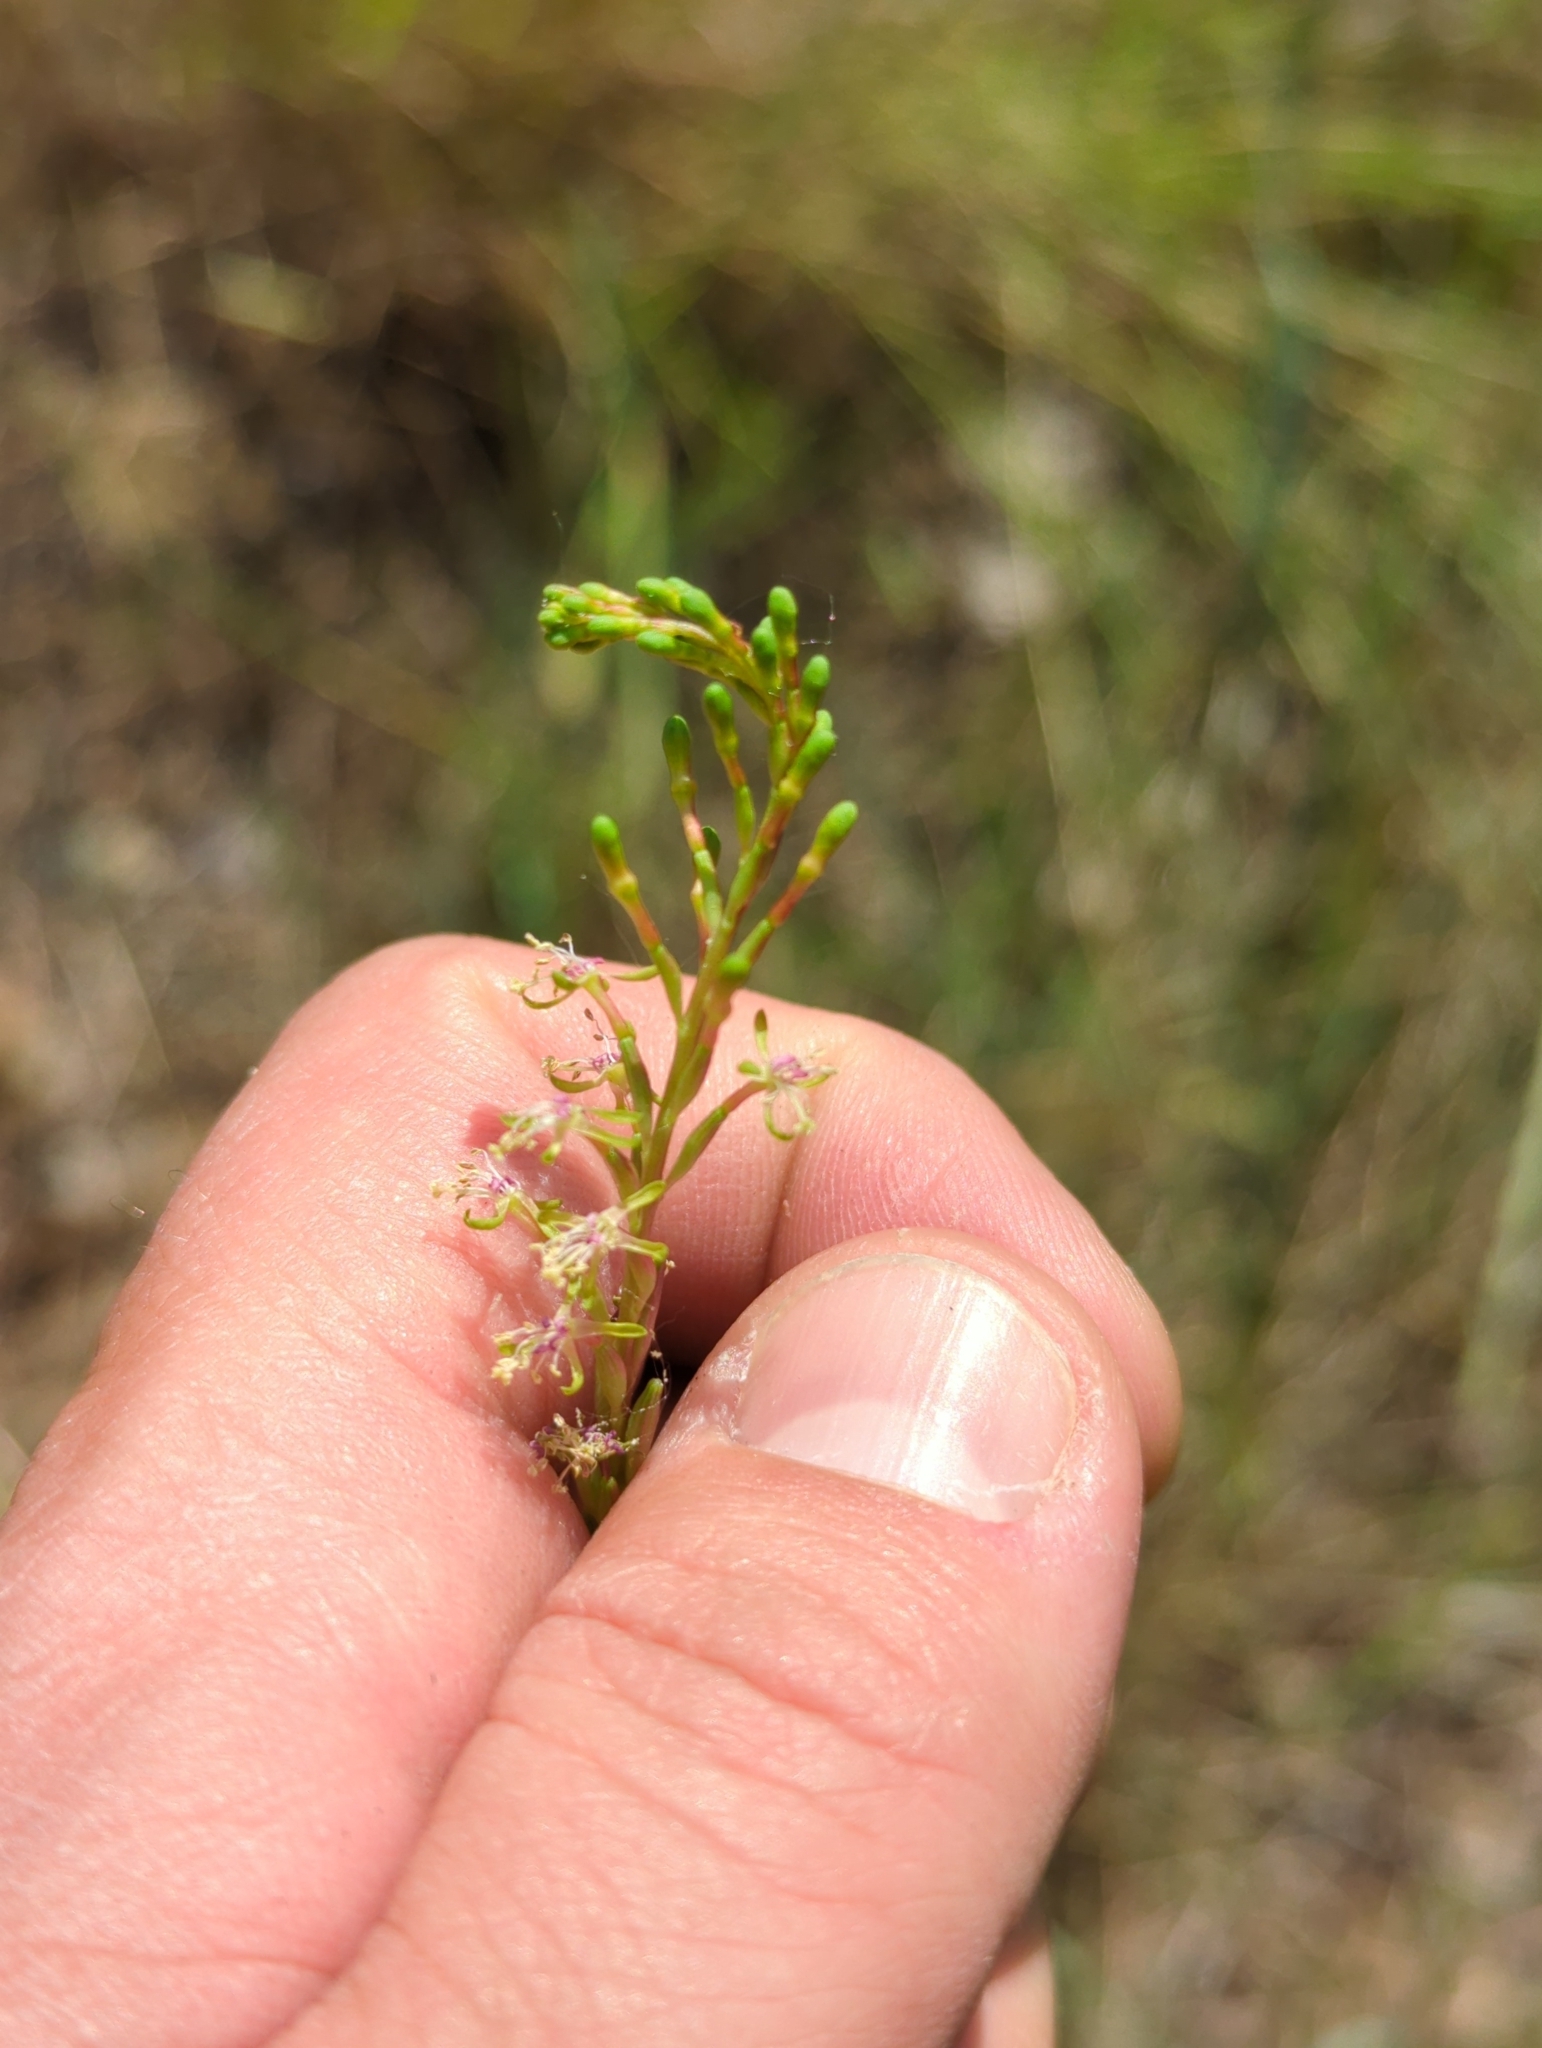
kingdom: Plantae
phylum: Tracheophyta
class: Magnoliopsida
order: Myrtales
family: Onagraceae
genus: Oenothera
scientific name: Oenothera curtiflora
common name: Velvetweed
